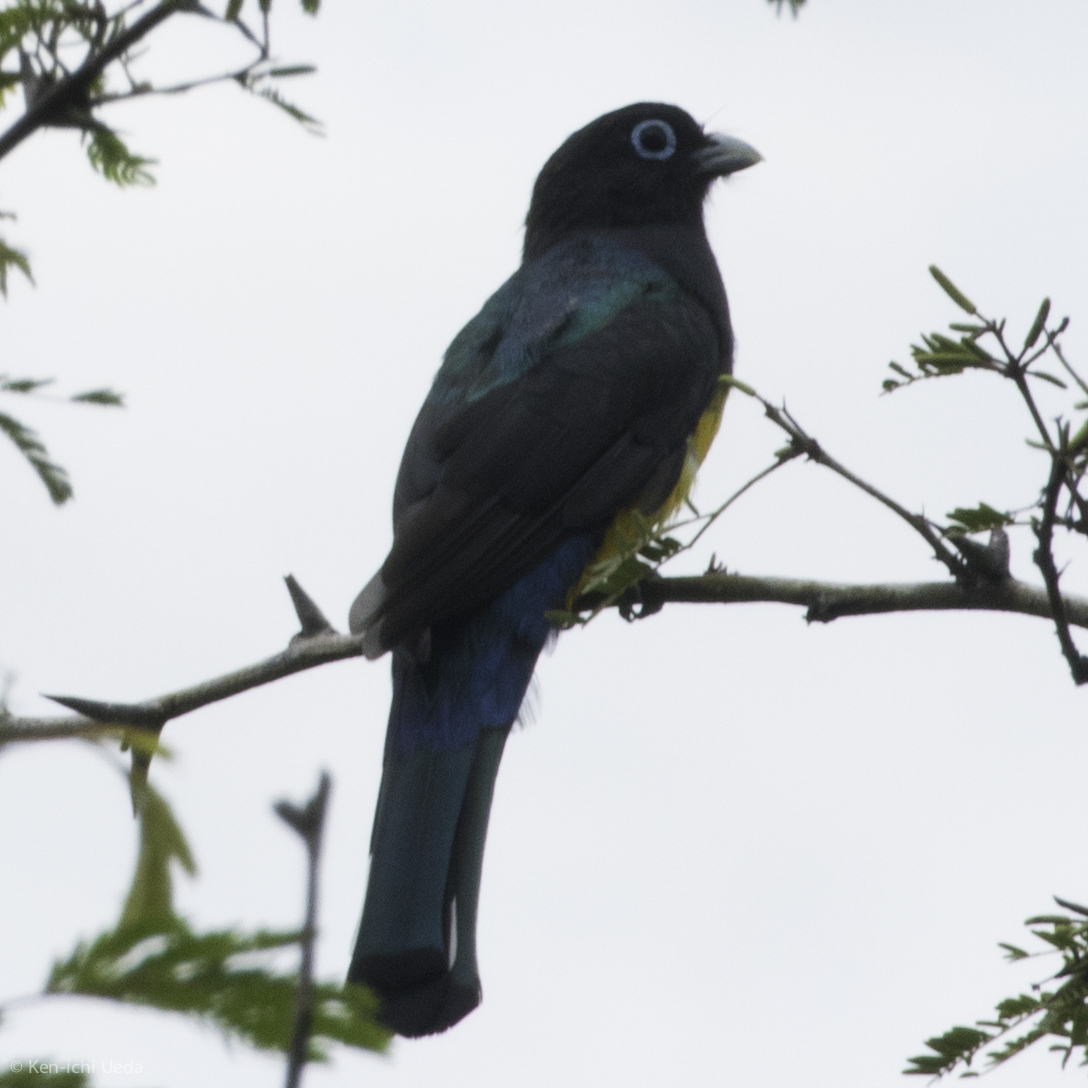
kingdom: Animalia
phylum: Chordata
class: Aves
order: Trogoniformes
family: Trogonidae
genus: Trogon
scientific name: Trogon melanocephalus
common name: Black-headed trogon
